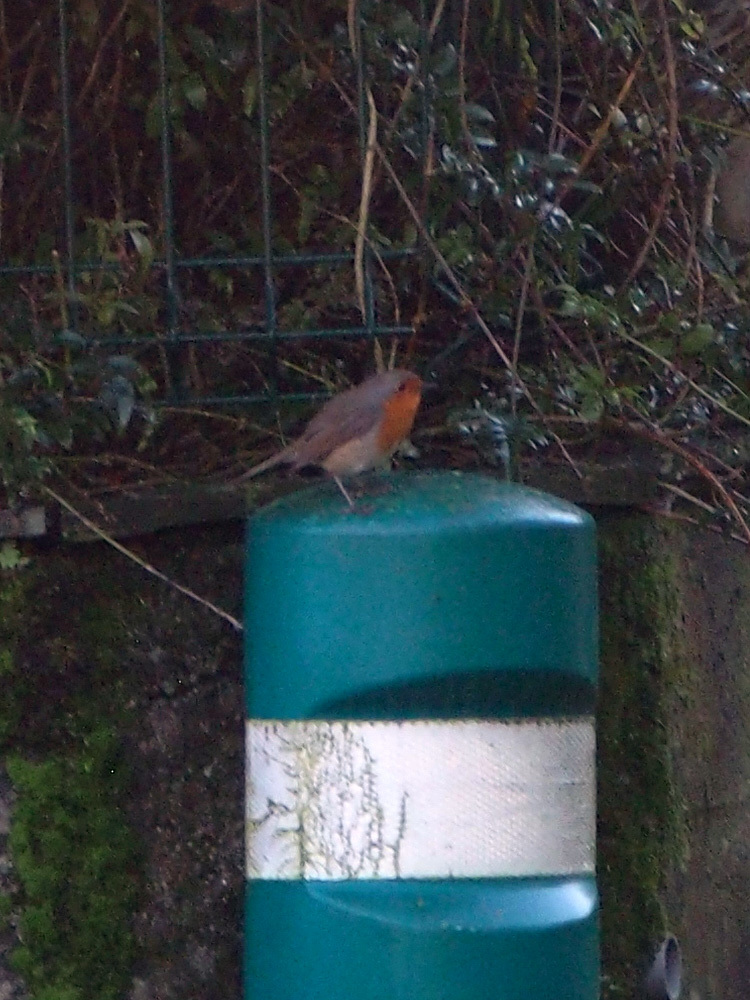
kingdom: Animalia
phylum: Chordata
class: Aves
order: Passeriformes
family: Muscicapidae
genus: Erithacus
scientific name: Erithacus rubecula
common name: European robin
